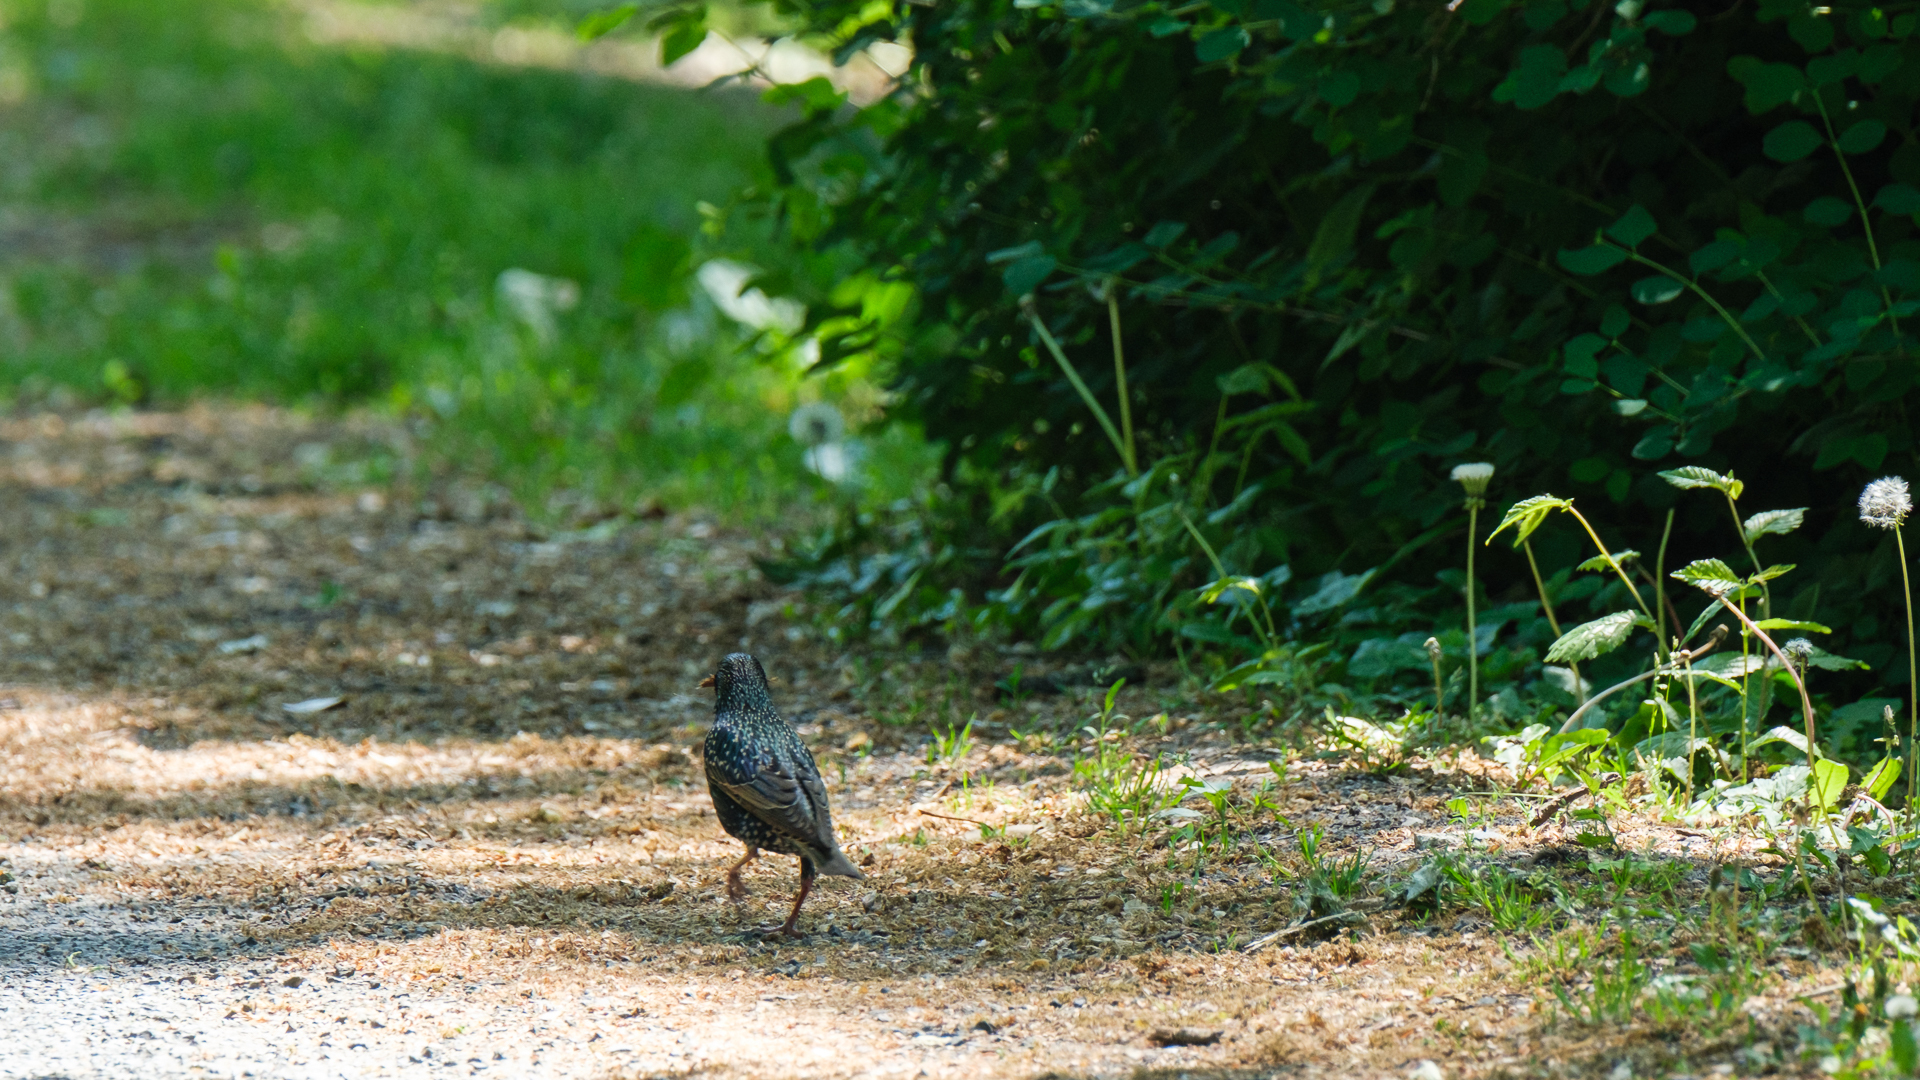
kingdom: Animalia
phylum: Chordata
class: Aves
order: Passeriformes
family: Sturnidae
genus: Sturnus
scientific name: Sturnus vulgaris
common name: Common starling
